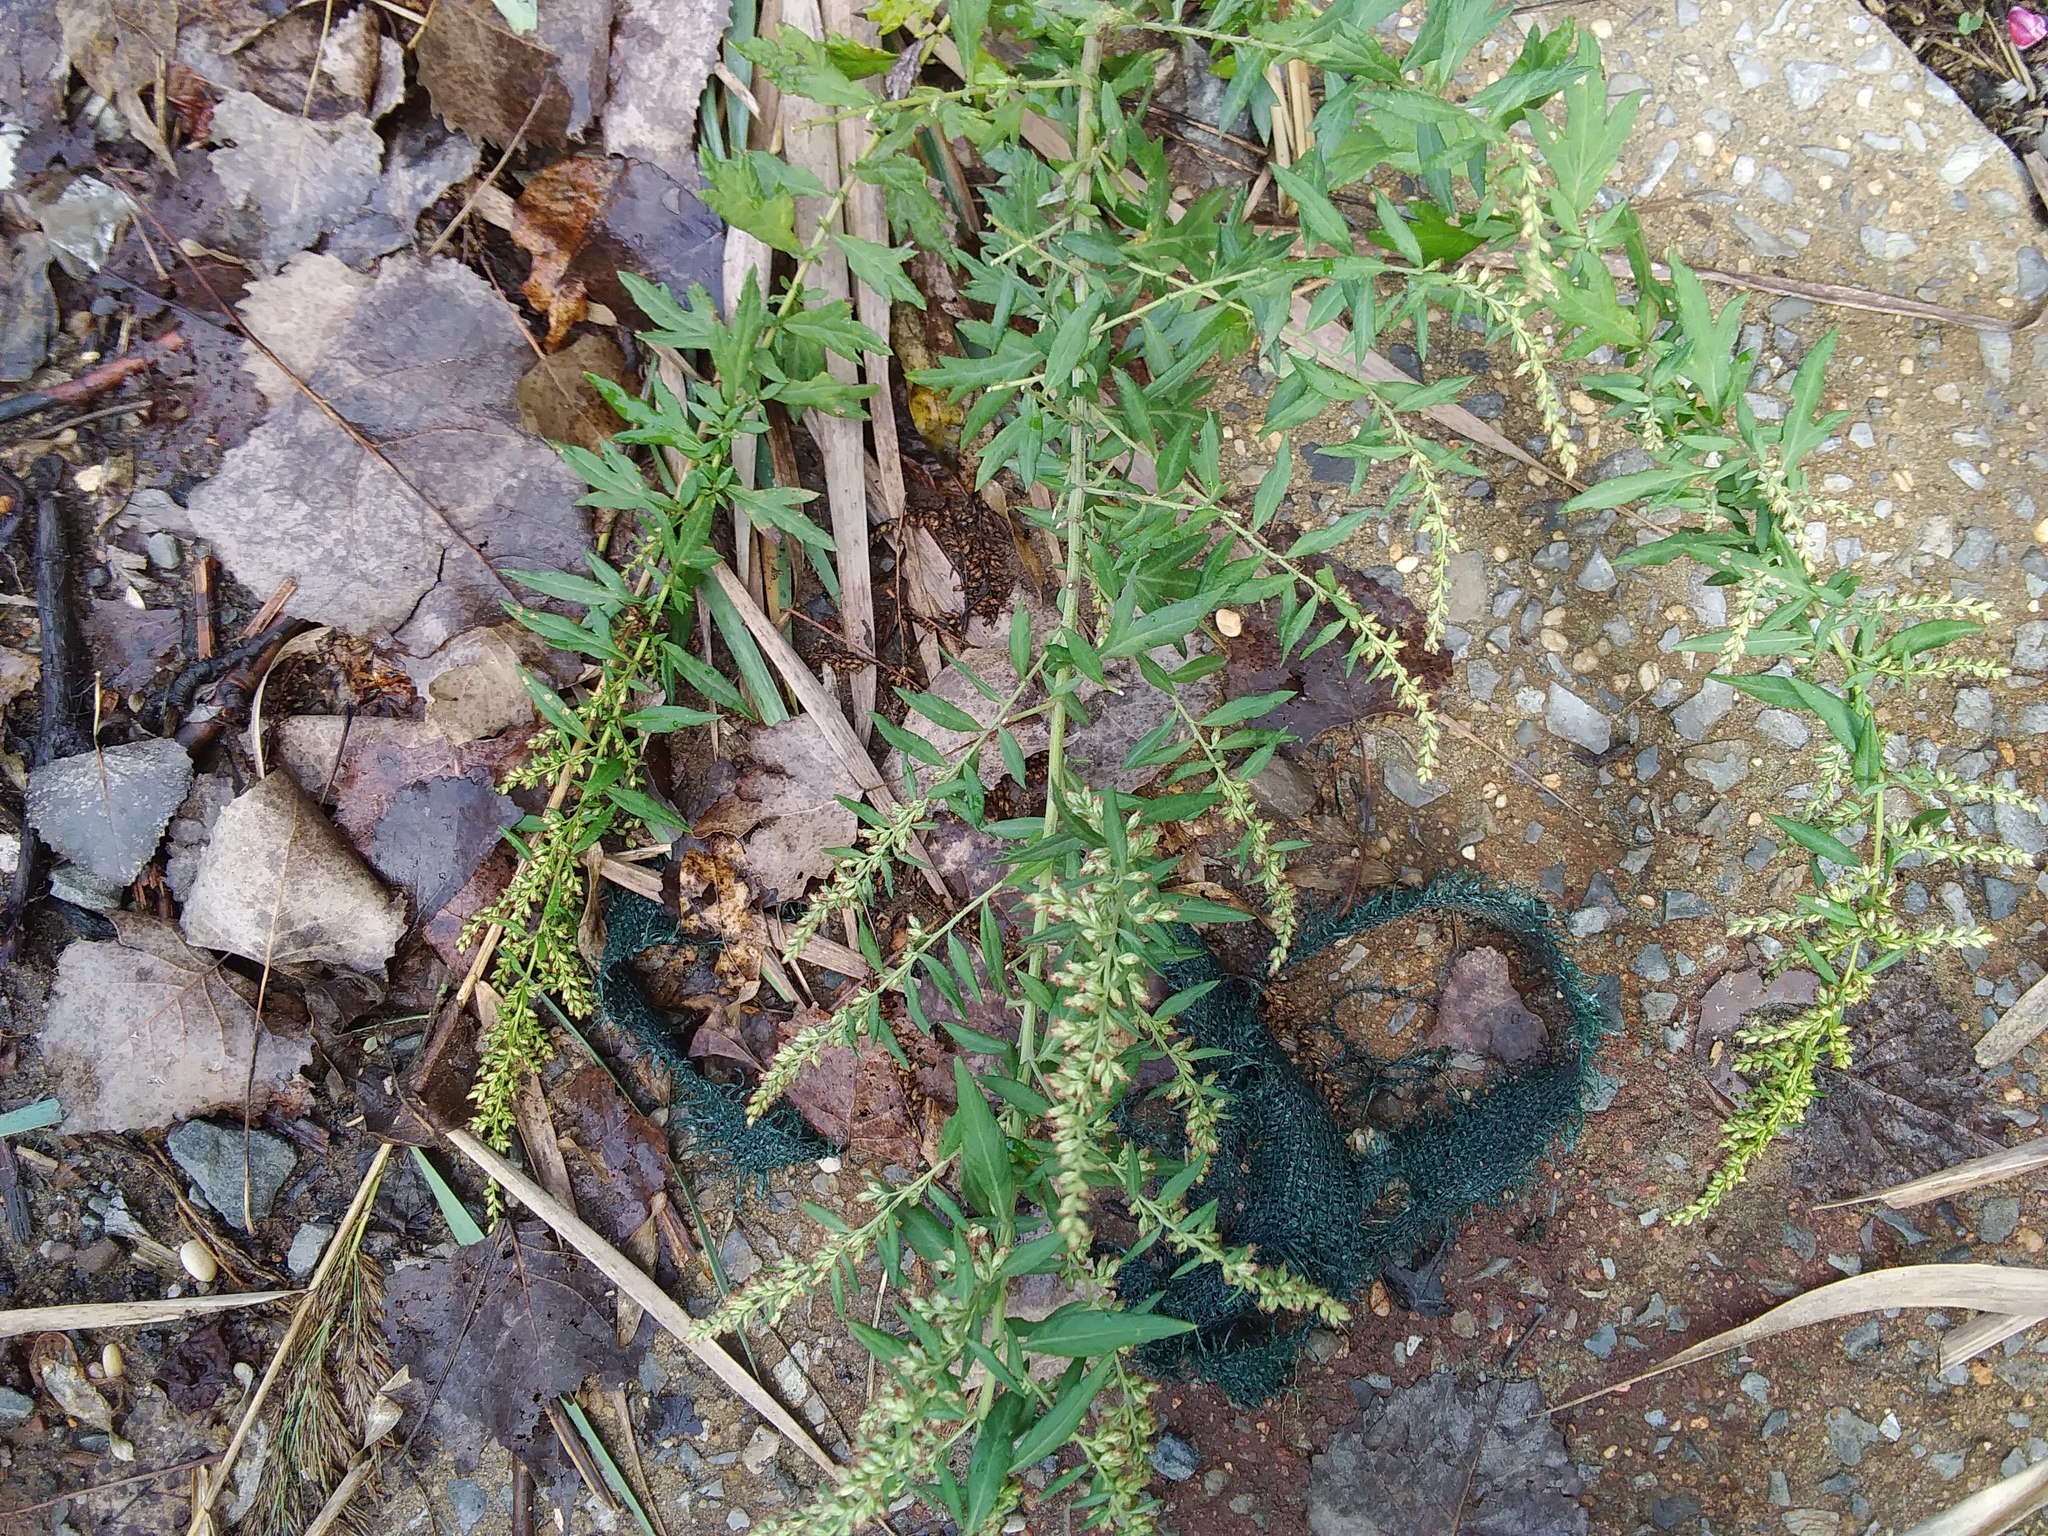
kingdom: Plantae
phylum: Tracheophyta
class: Magnoliopsida
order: Asterales
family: Asteraceae
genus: Artemisia
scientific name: Artemisia vulgaris
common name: Mugwort
